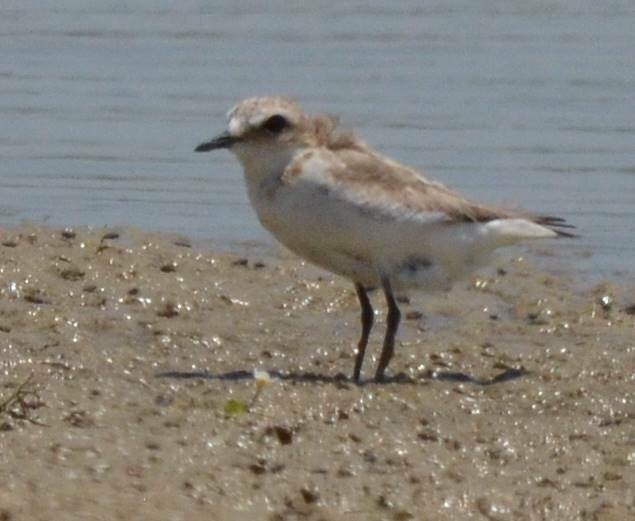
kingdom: Animalia
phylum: Chordata
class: Aves
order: Charadriiformes
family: Charadriidae
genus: Charadrius
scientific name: Charadrius alexandrinus
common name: Kentish plover
